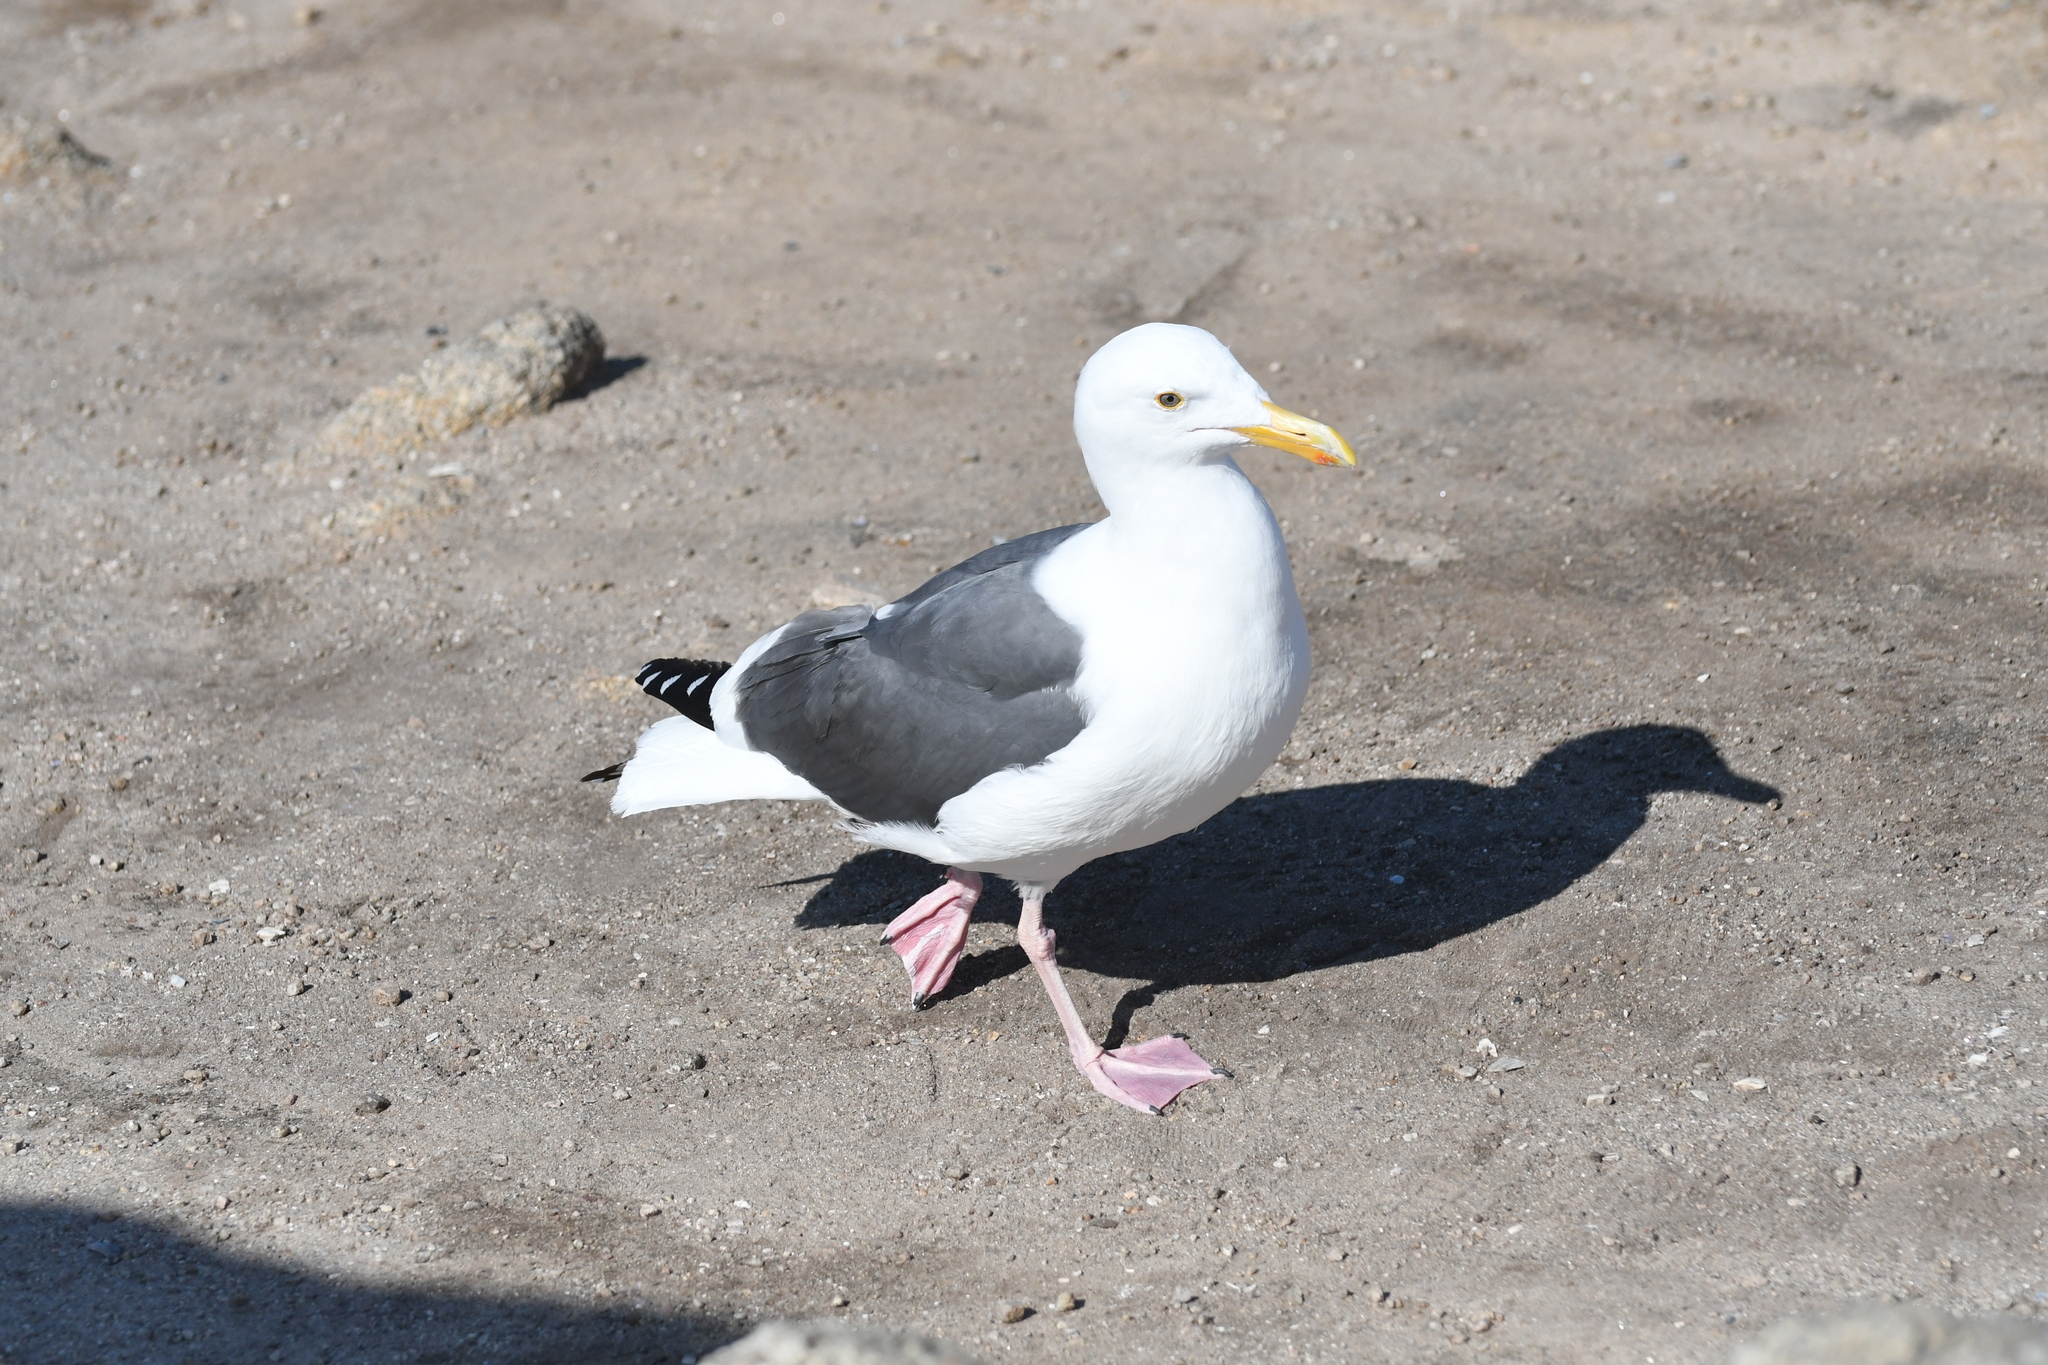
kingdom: Animalia
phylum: Chordata
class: Aves
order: Charadriiformes
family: Laridae
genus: Larus
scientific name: Larus occidentalis
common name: Western gull
